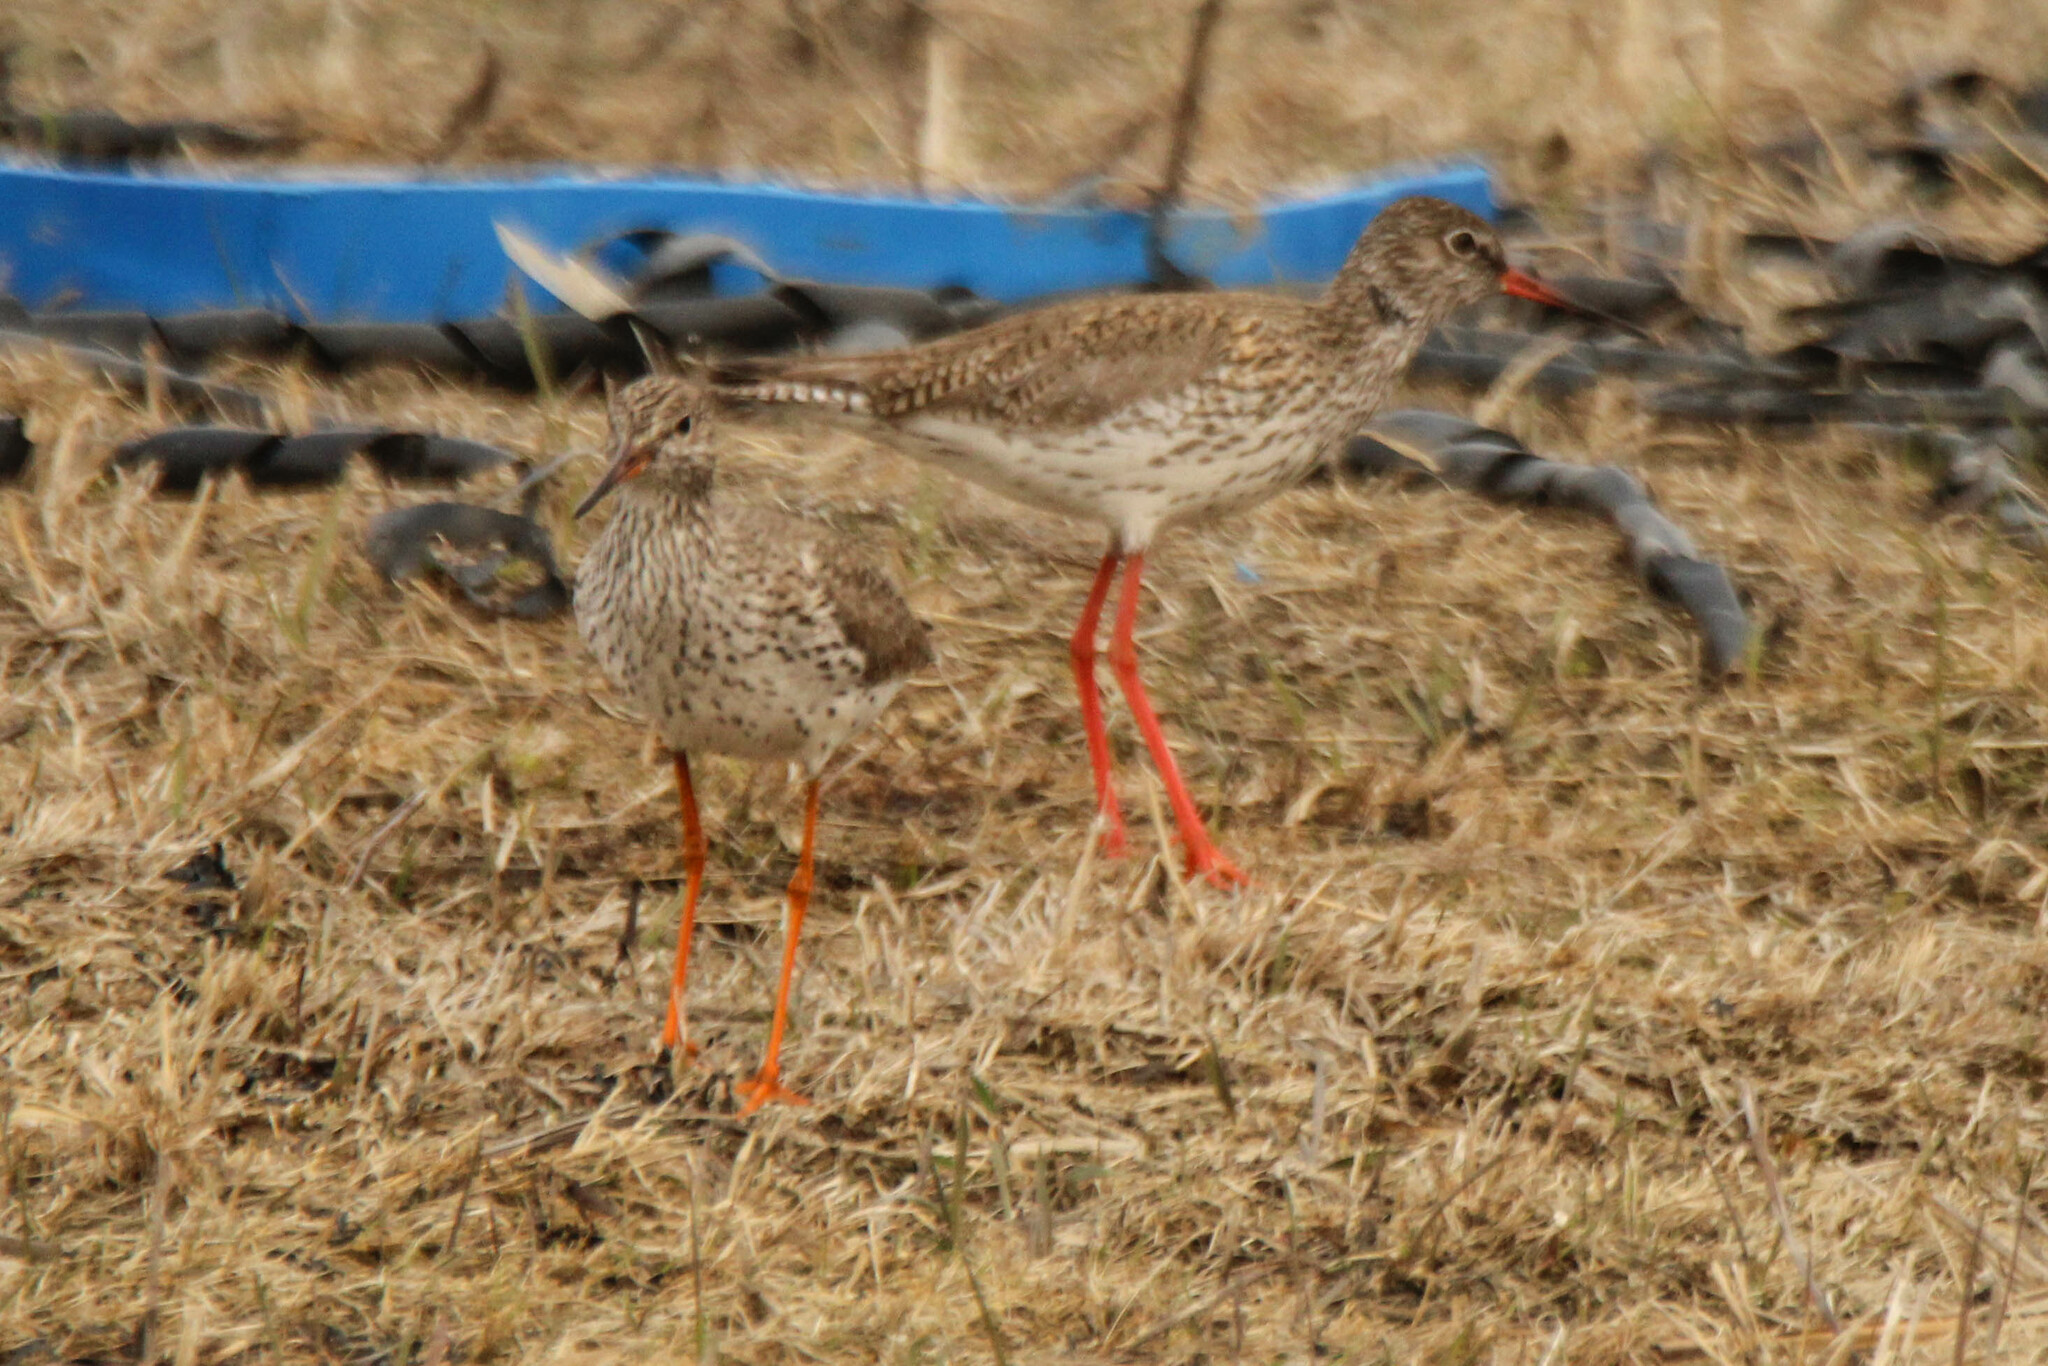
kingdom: Animalia
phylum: Chordata
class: Aves
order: Charadriiformes
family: Scolopacidae
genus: Tringa
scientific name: Tringa totanus
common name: Common redshank
